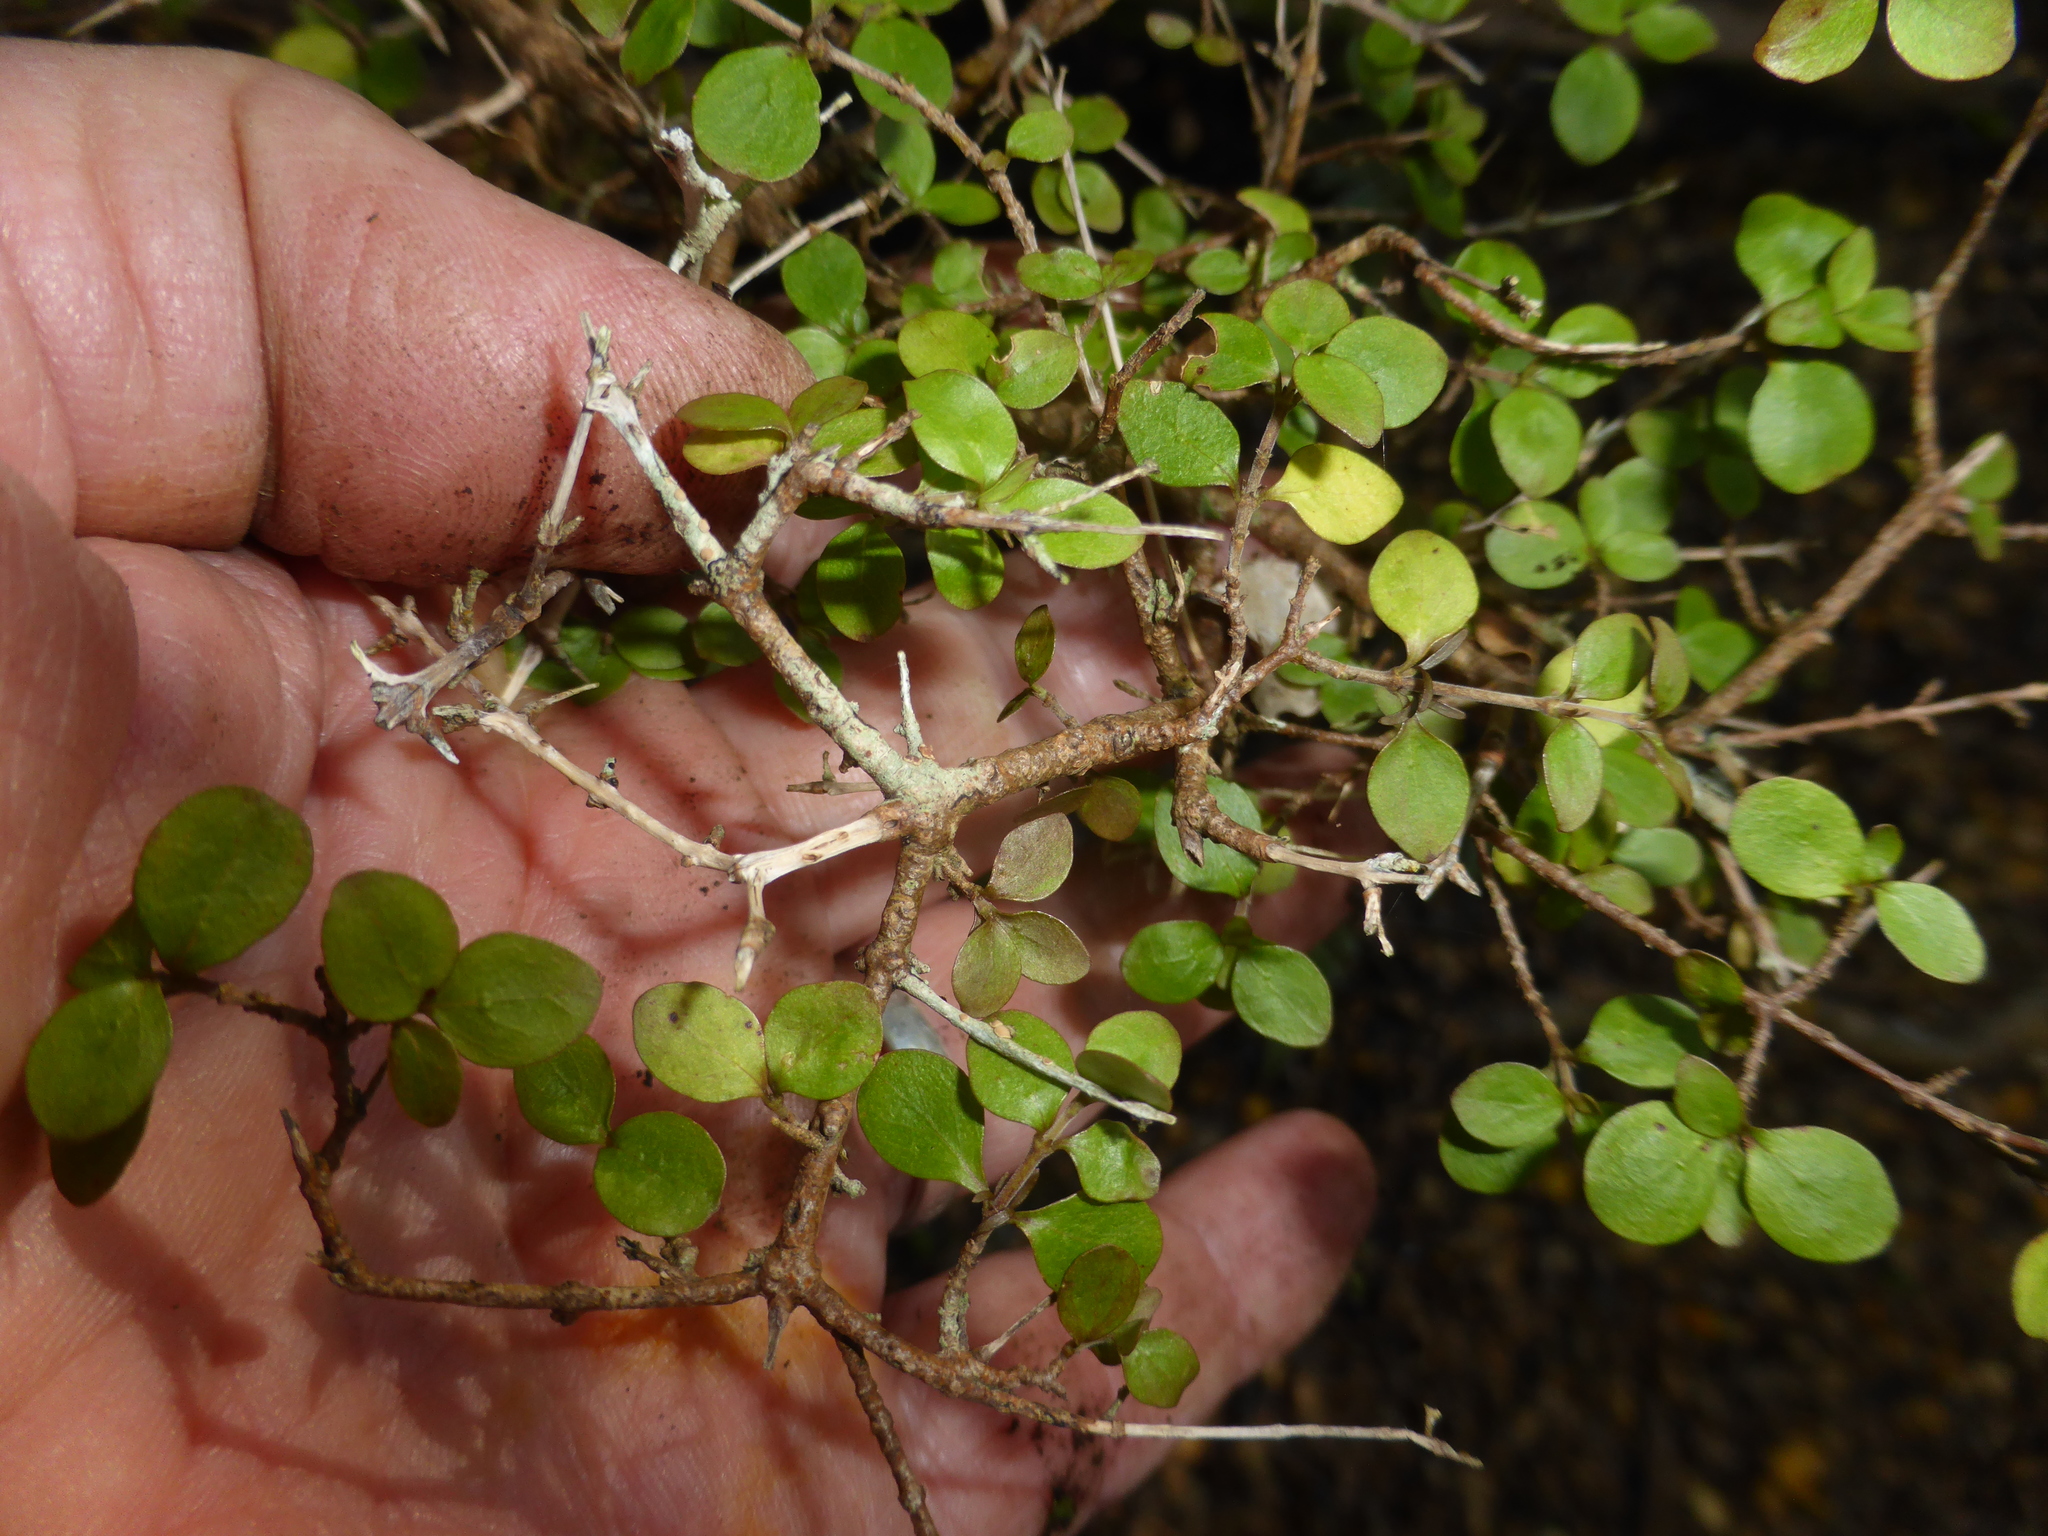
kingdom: Plantae
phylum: Tracheophyta
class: Magnoliopsida
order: Gentianales
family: Rubiaceae
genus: Coprosma
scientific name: Coprosma rhamnoides
